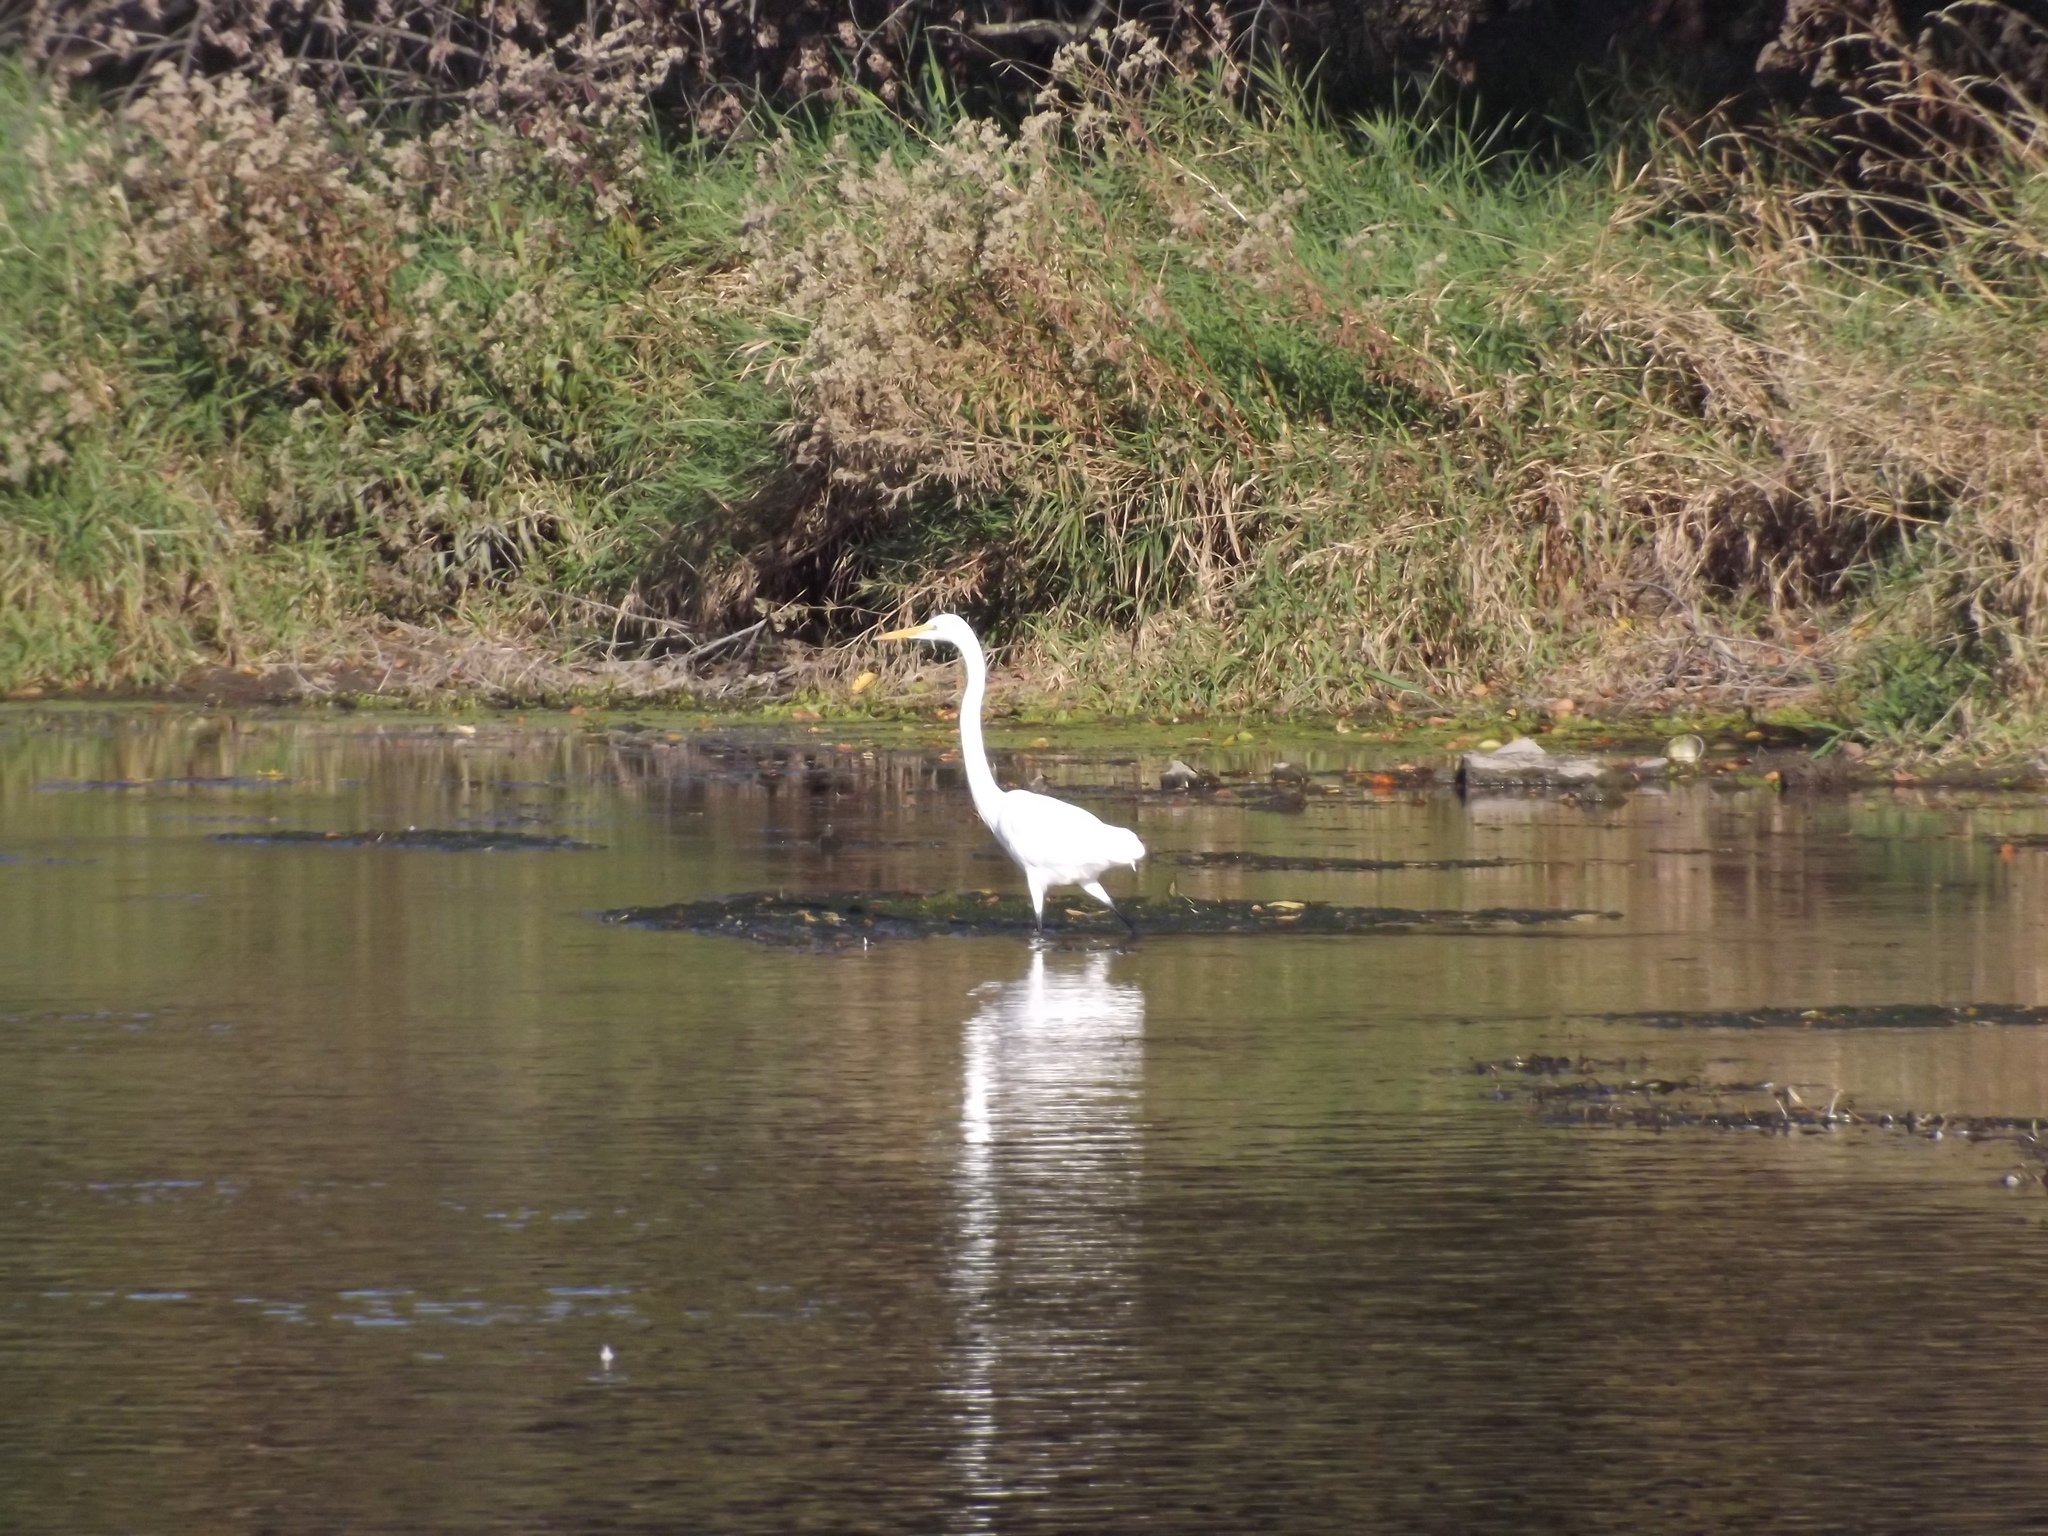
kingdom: Animalia
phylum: Chordata
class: Aves
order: Pelecaniformes
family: Ardeidae
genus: Ardea
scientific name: Ardea alba
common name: Great egret
